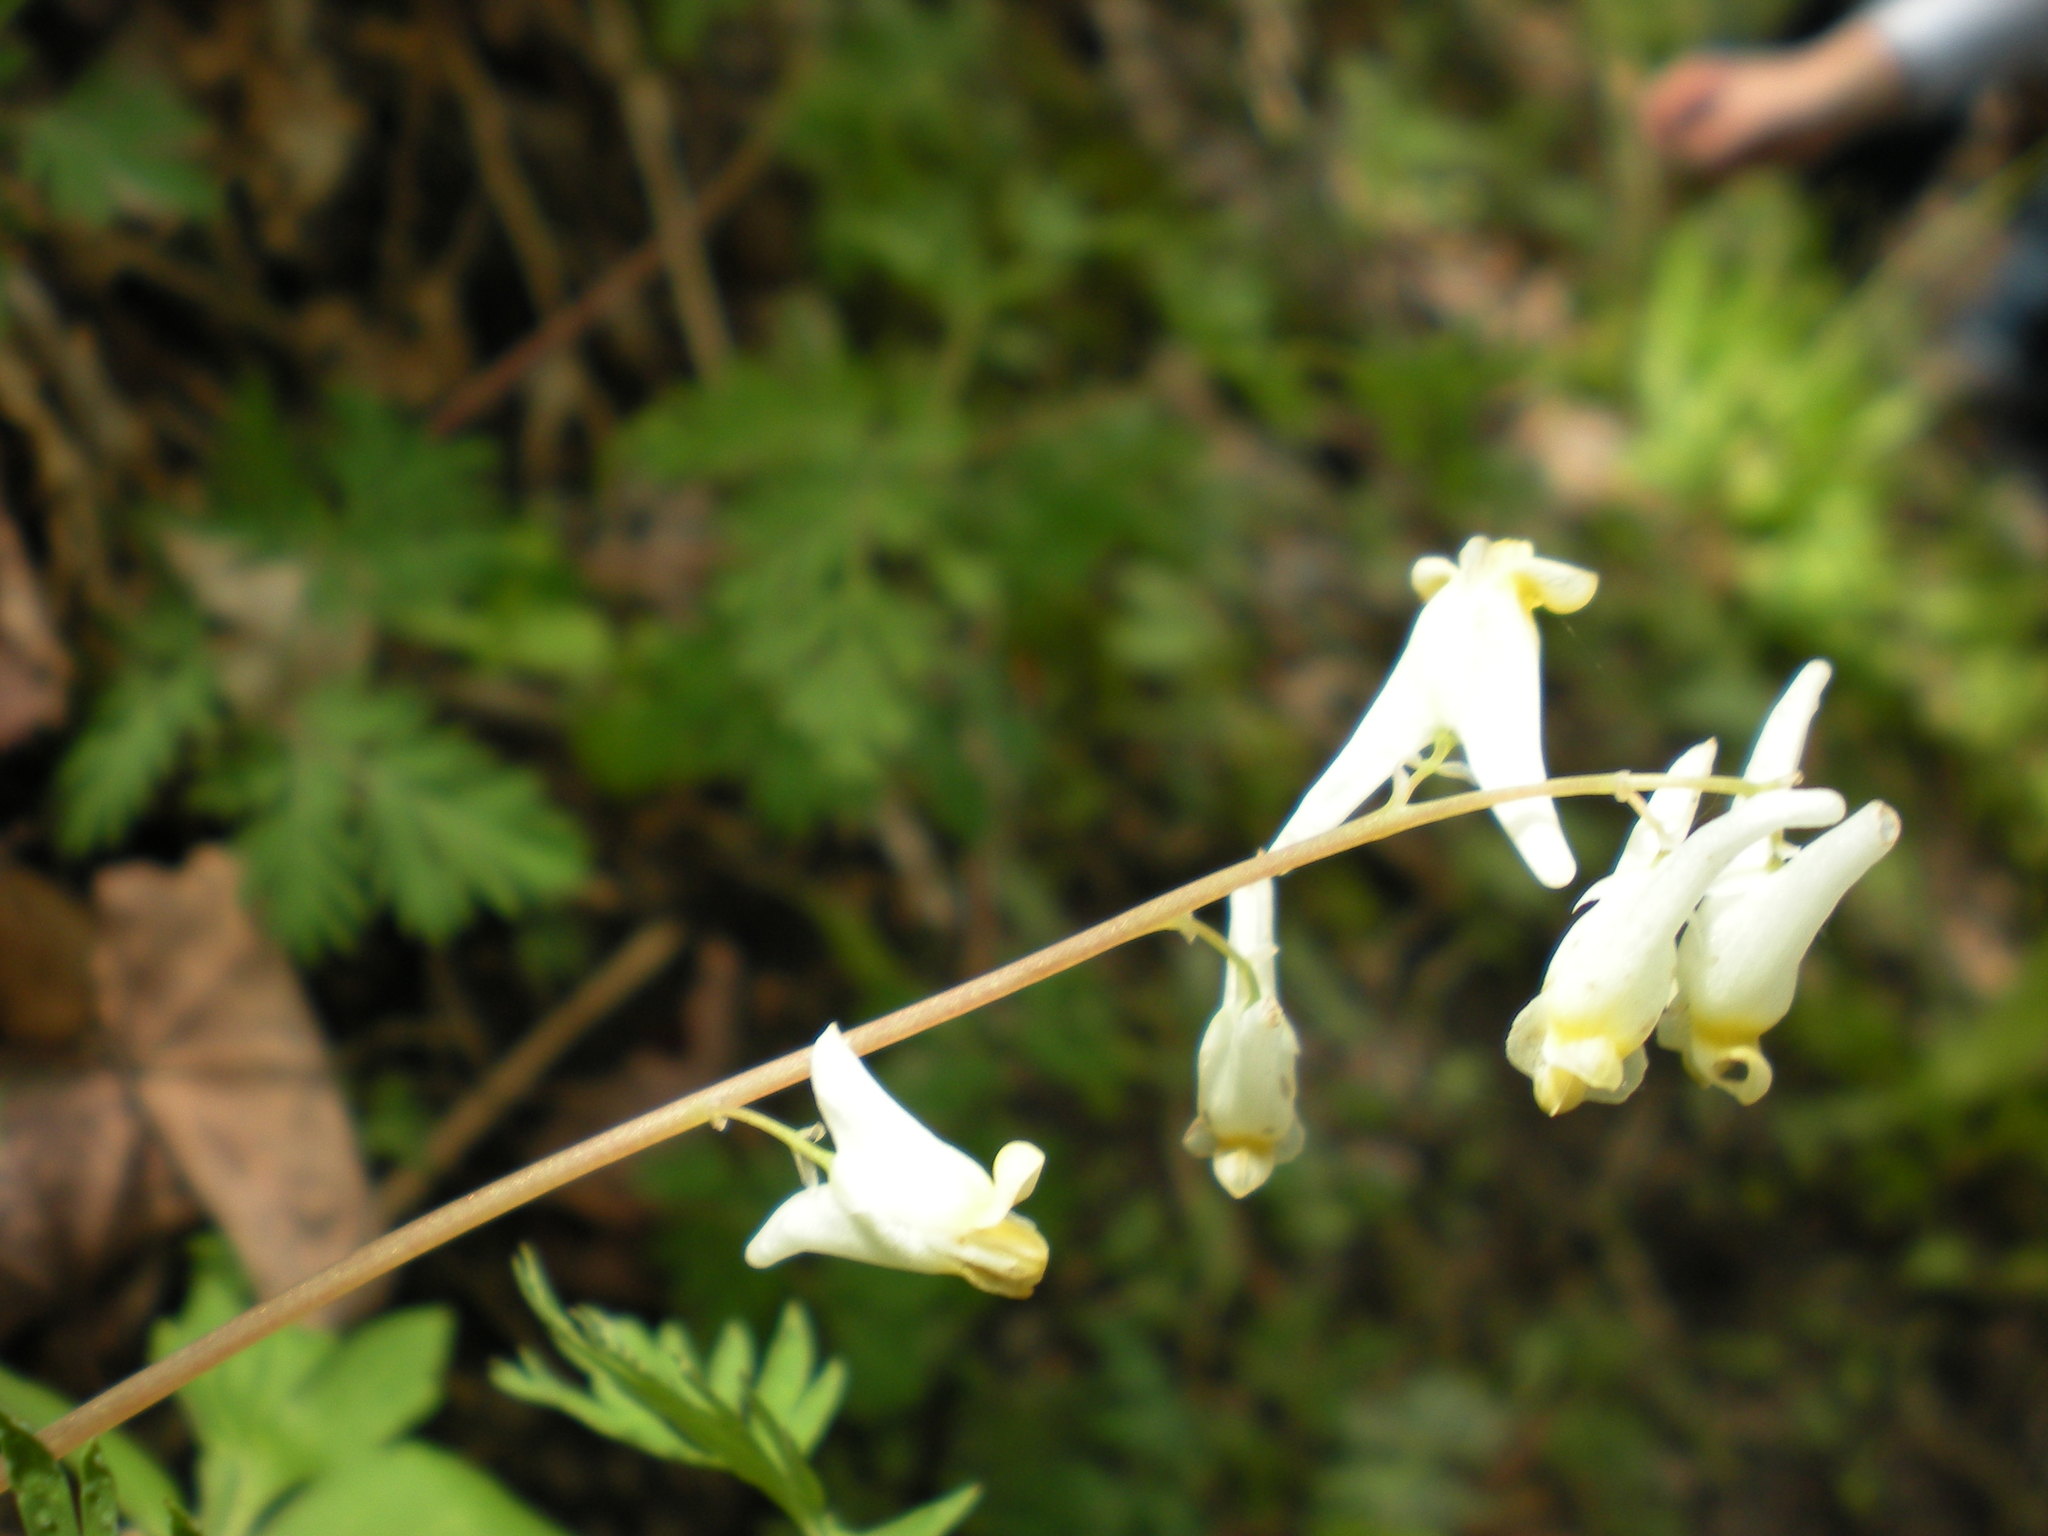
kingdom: Plantae
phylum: Tracheophyta
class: Magnoliopsida
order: Ranunculales
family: Papaveraceae
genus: Dicentra
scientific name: Dicentra cucullaria
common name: Dutchman's breeches
